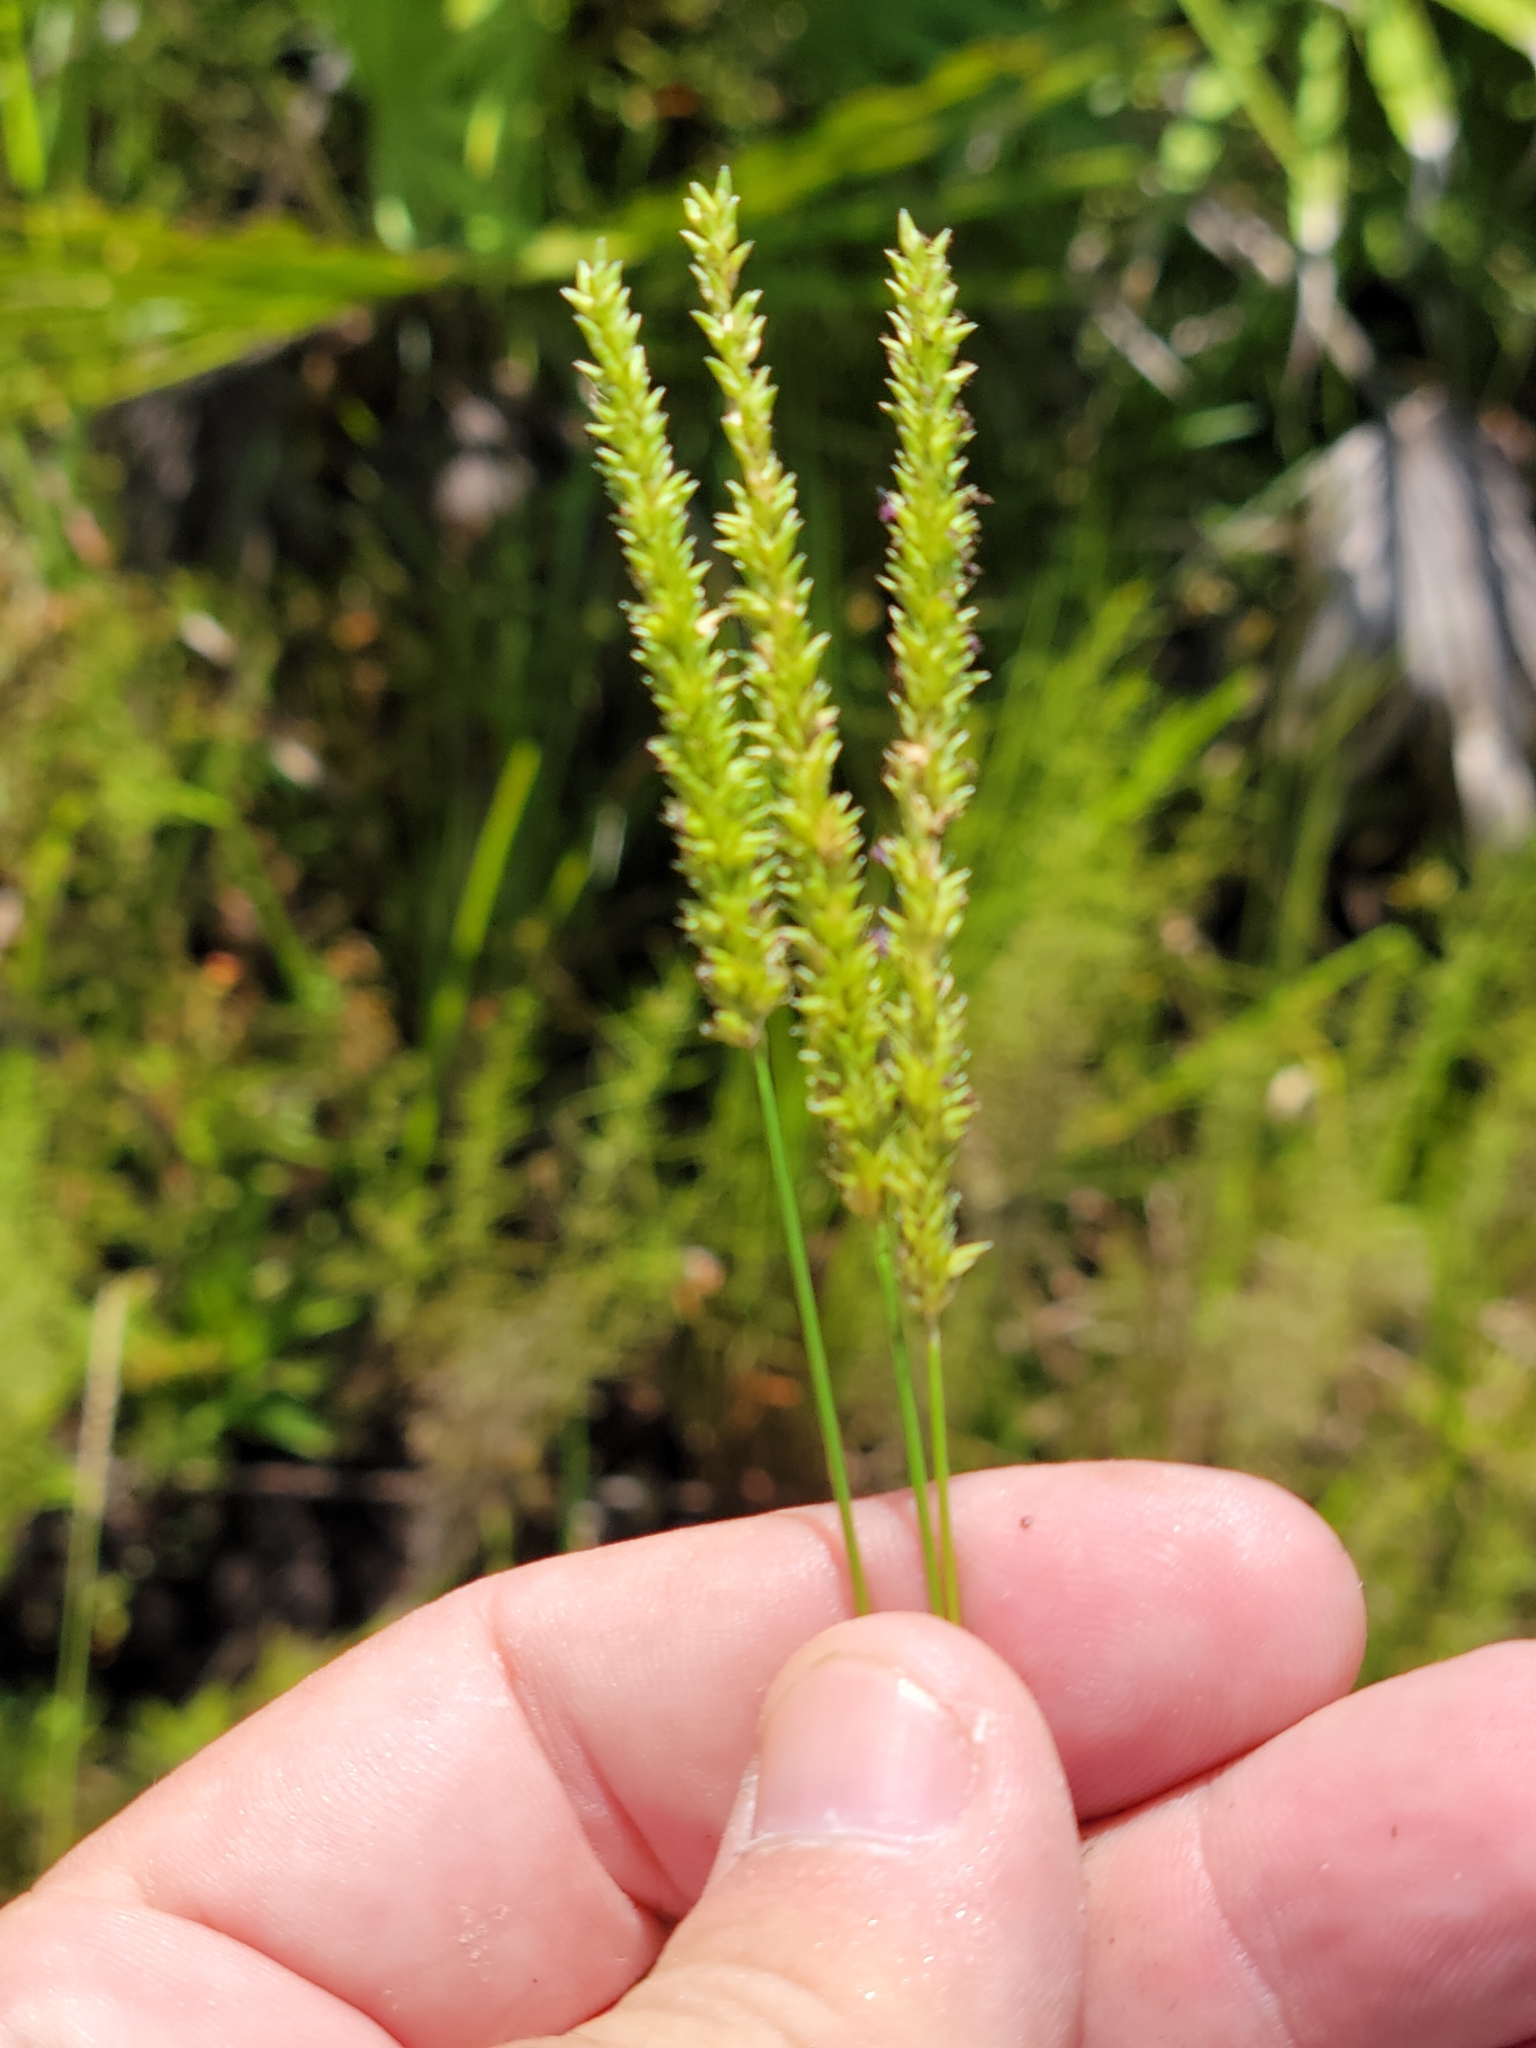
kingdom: Plantae
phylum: Tracheophyta
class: Liliopsida
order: Poales
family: Poaceae
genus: Sacciolepis
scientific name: Sacciolepis indica
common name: Glenwoodgrass
